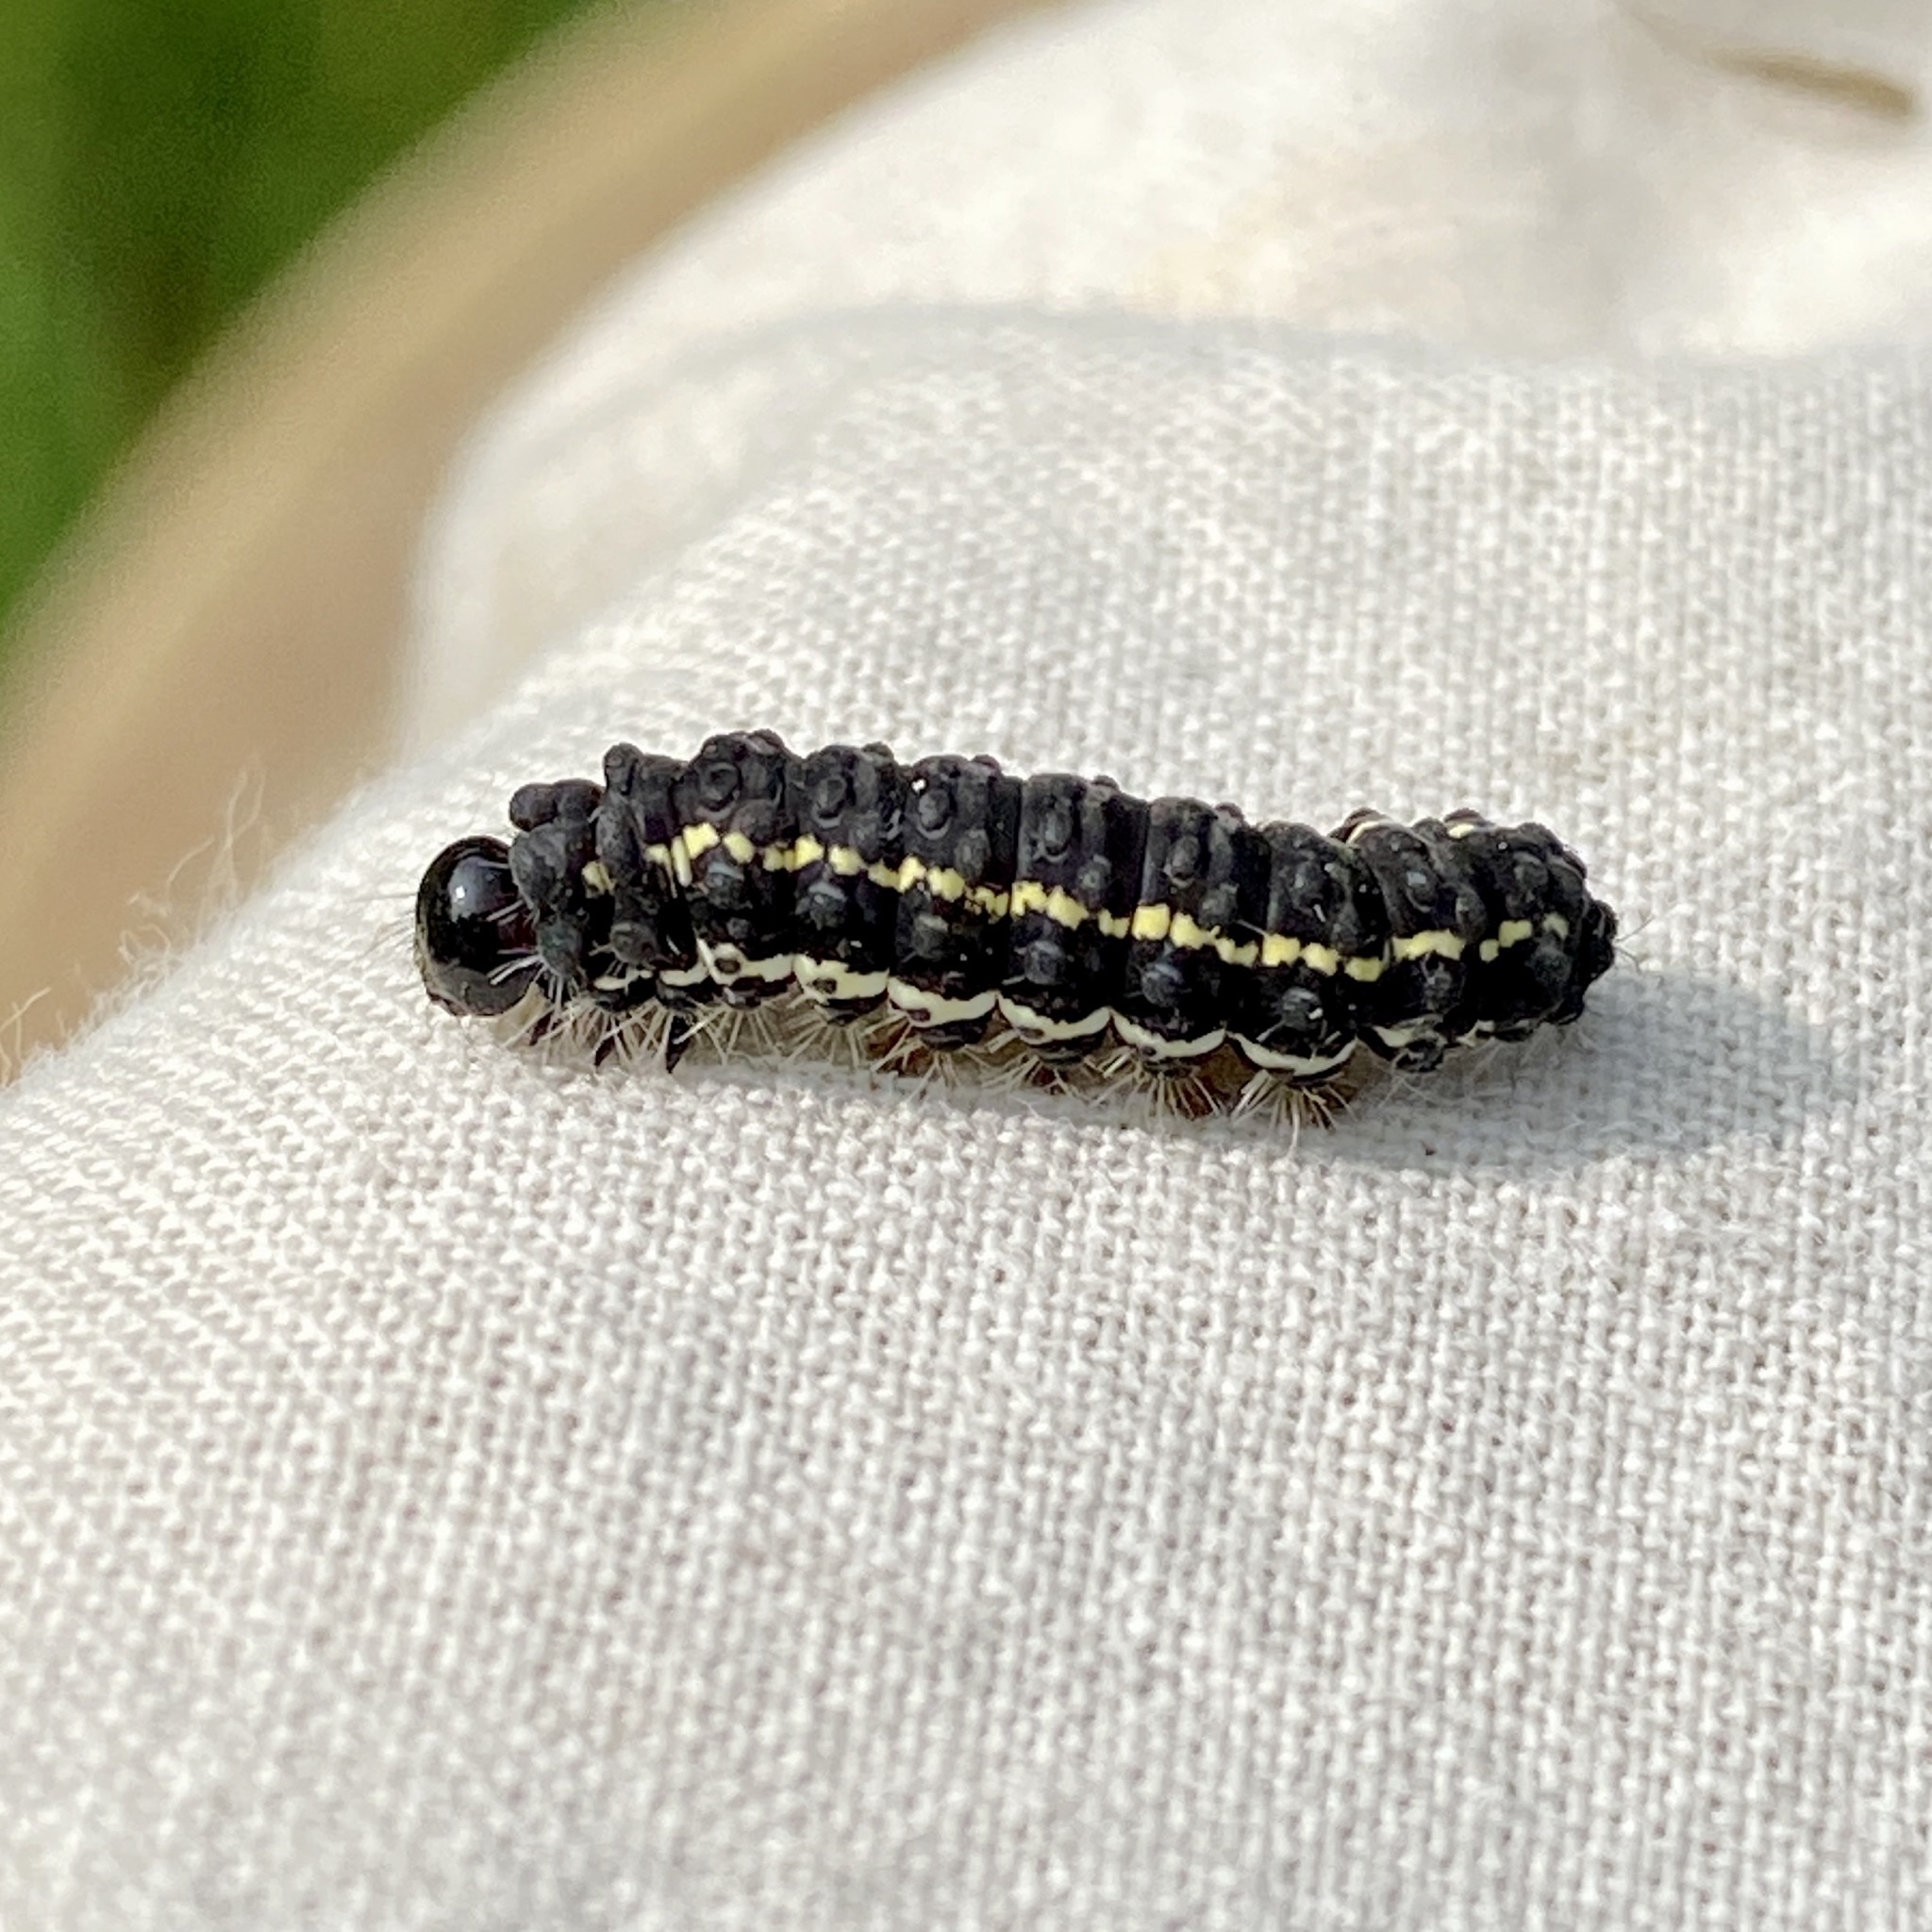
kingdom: Animalia
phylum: Arthropoda
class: Insecta
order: Hymenoptera
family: Diprionidae
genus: Diprion
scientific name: Diprion similis
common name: Pine sawfly
